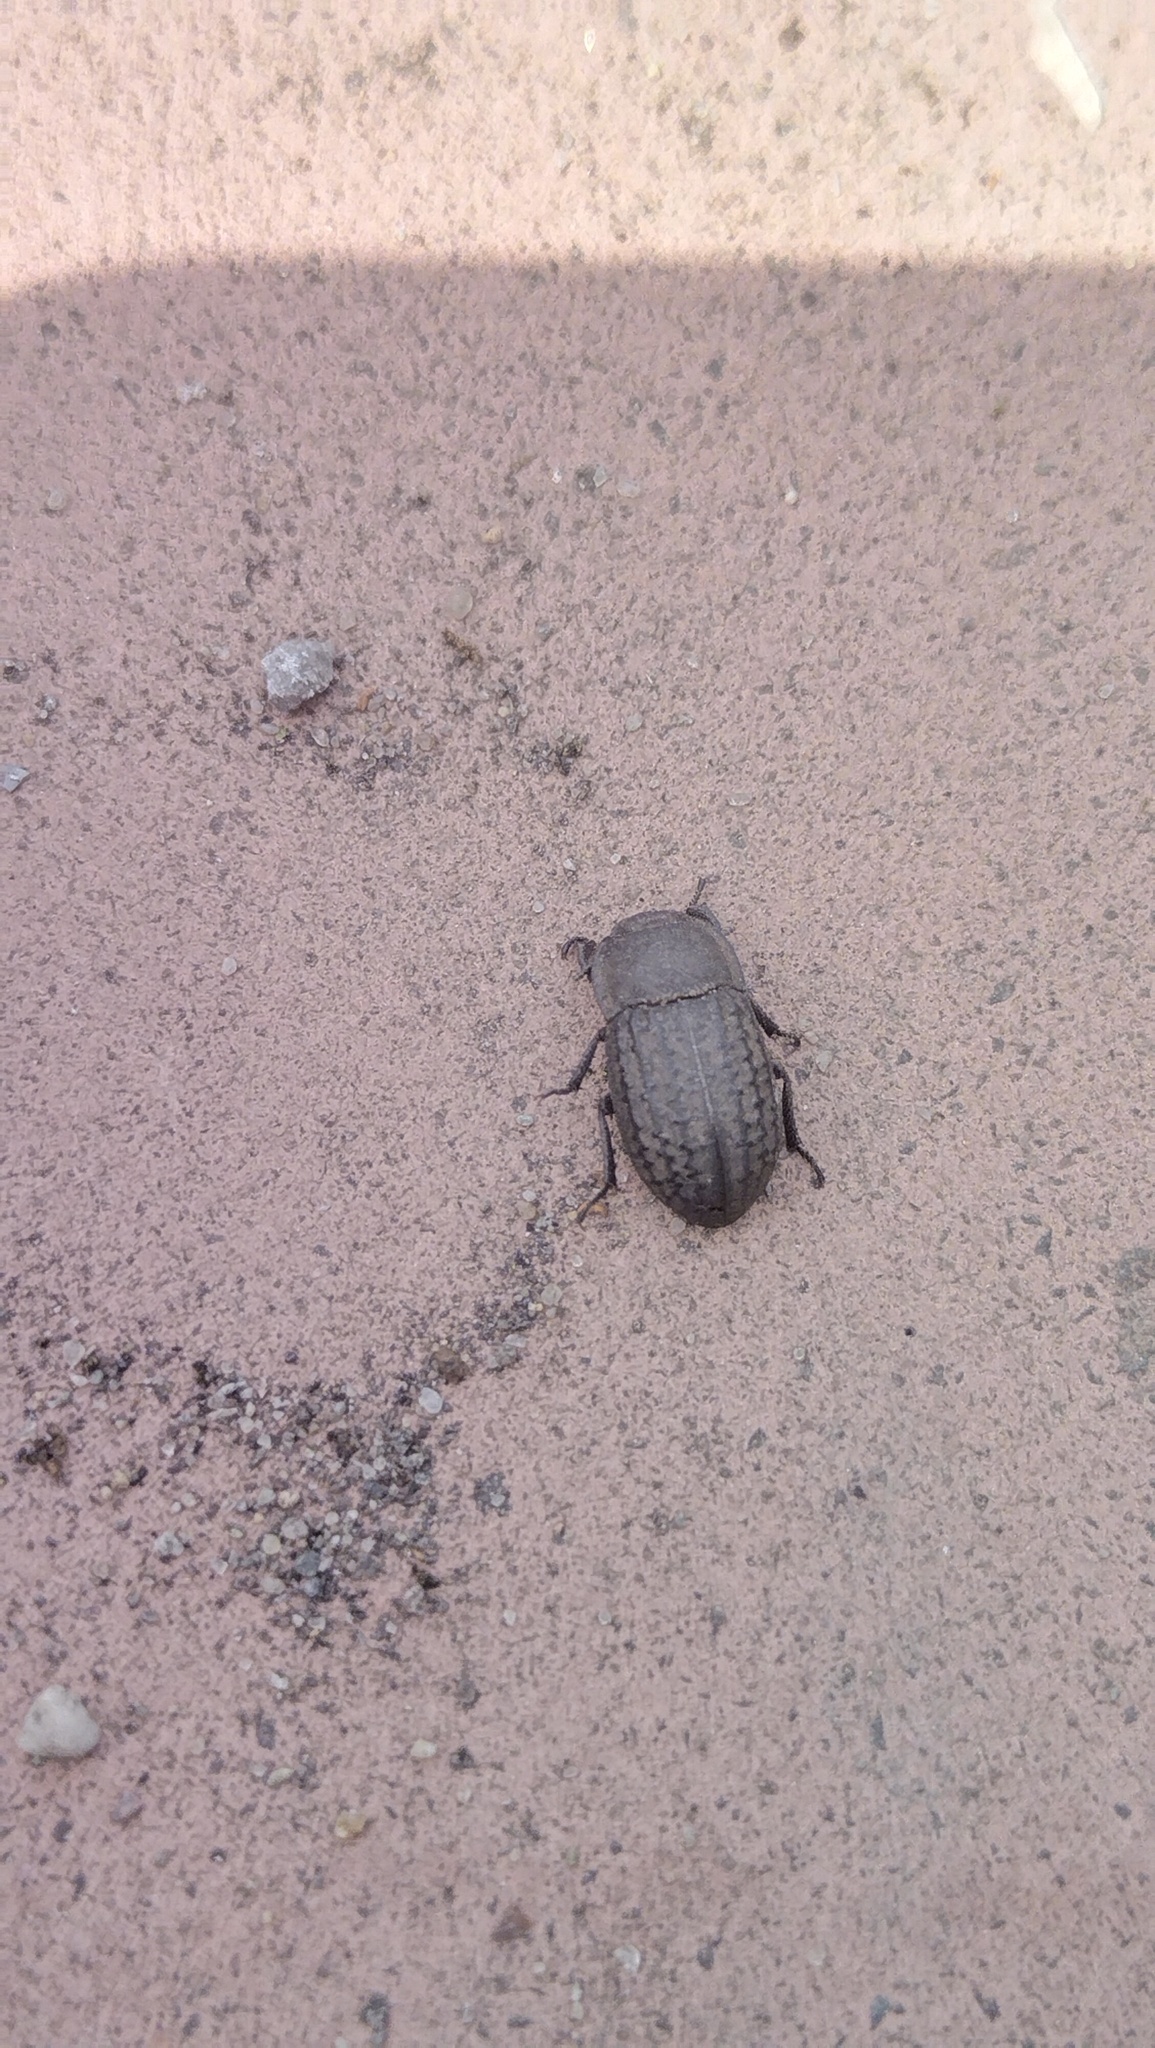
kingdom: Animalia
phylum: Arthropoda
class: Insecta
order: Coleoptera
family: Tenebrionidae
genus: Opatrum
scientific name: Opatrum sabulosum
